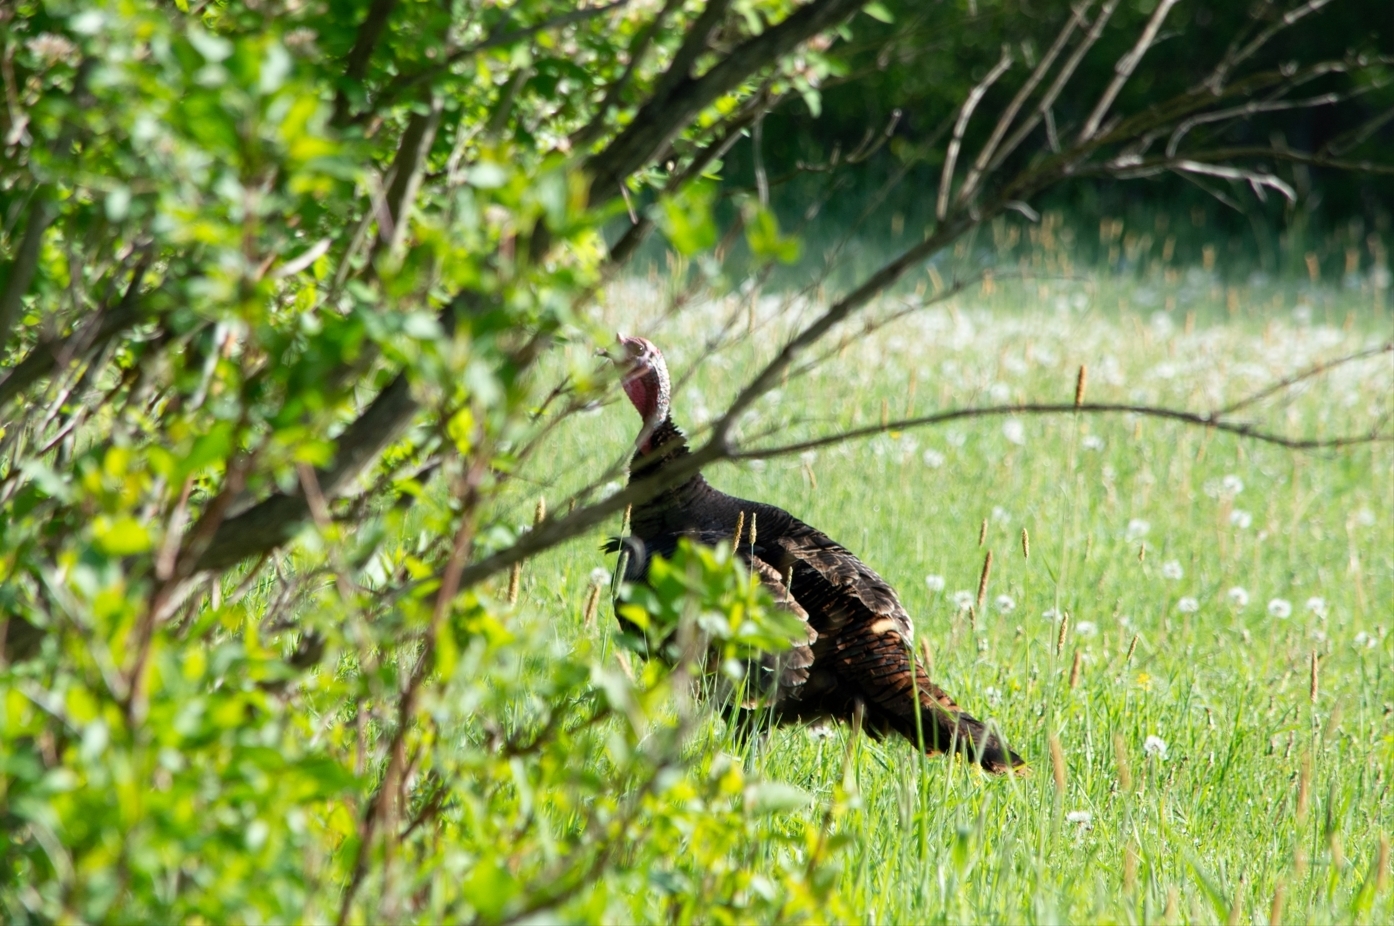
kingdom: Animalia
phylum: Chordata
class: Aves
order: Galliformes
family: Phasianidae
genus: Meleagris
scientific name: Meleagris gallopavo
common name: Wild turkey
